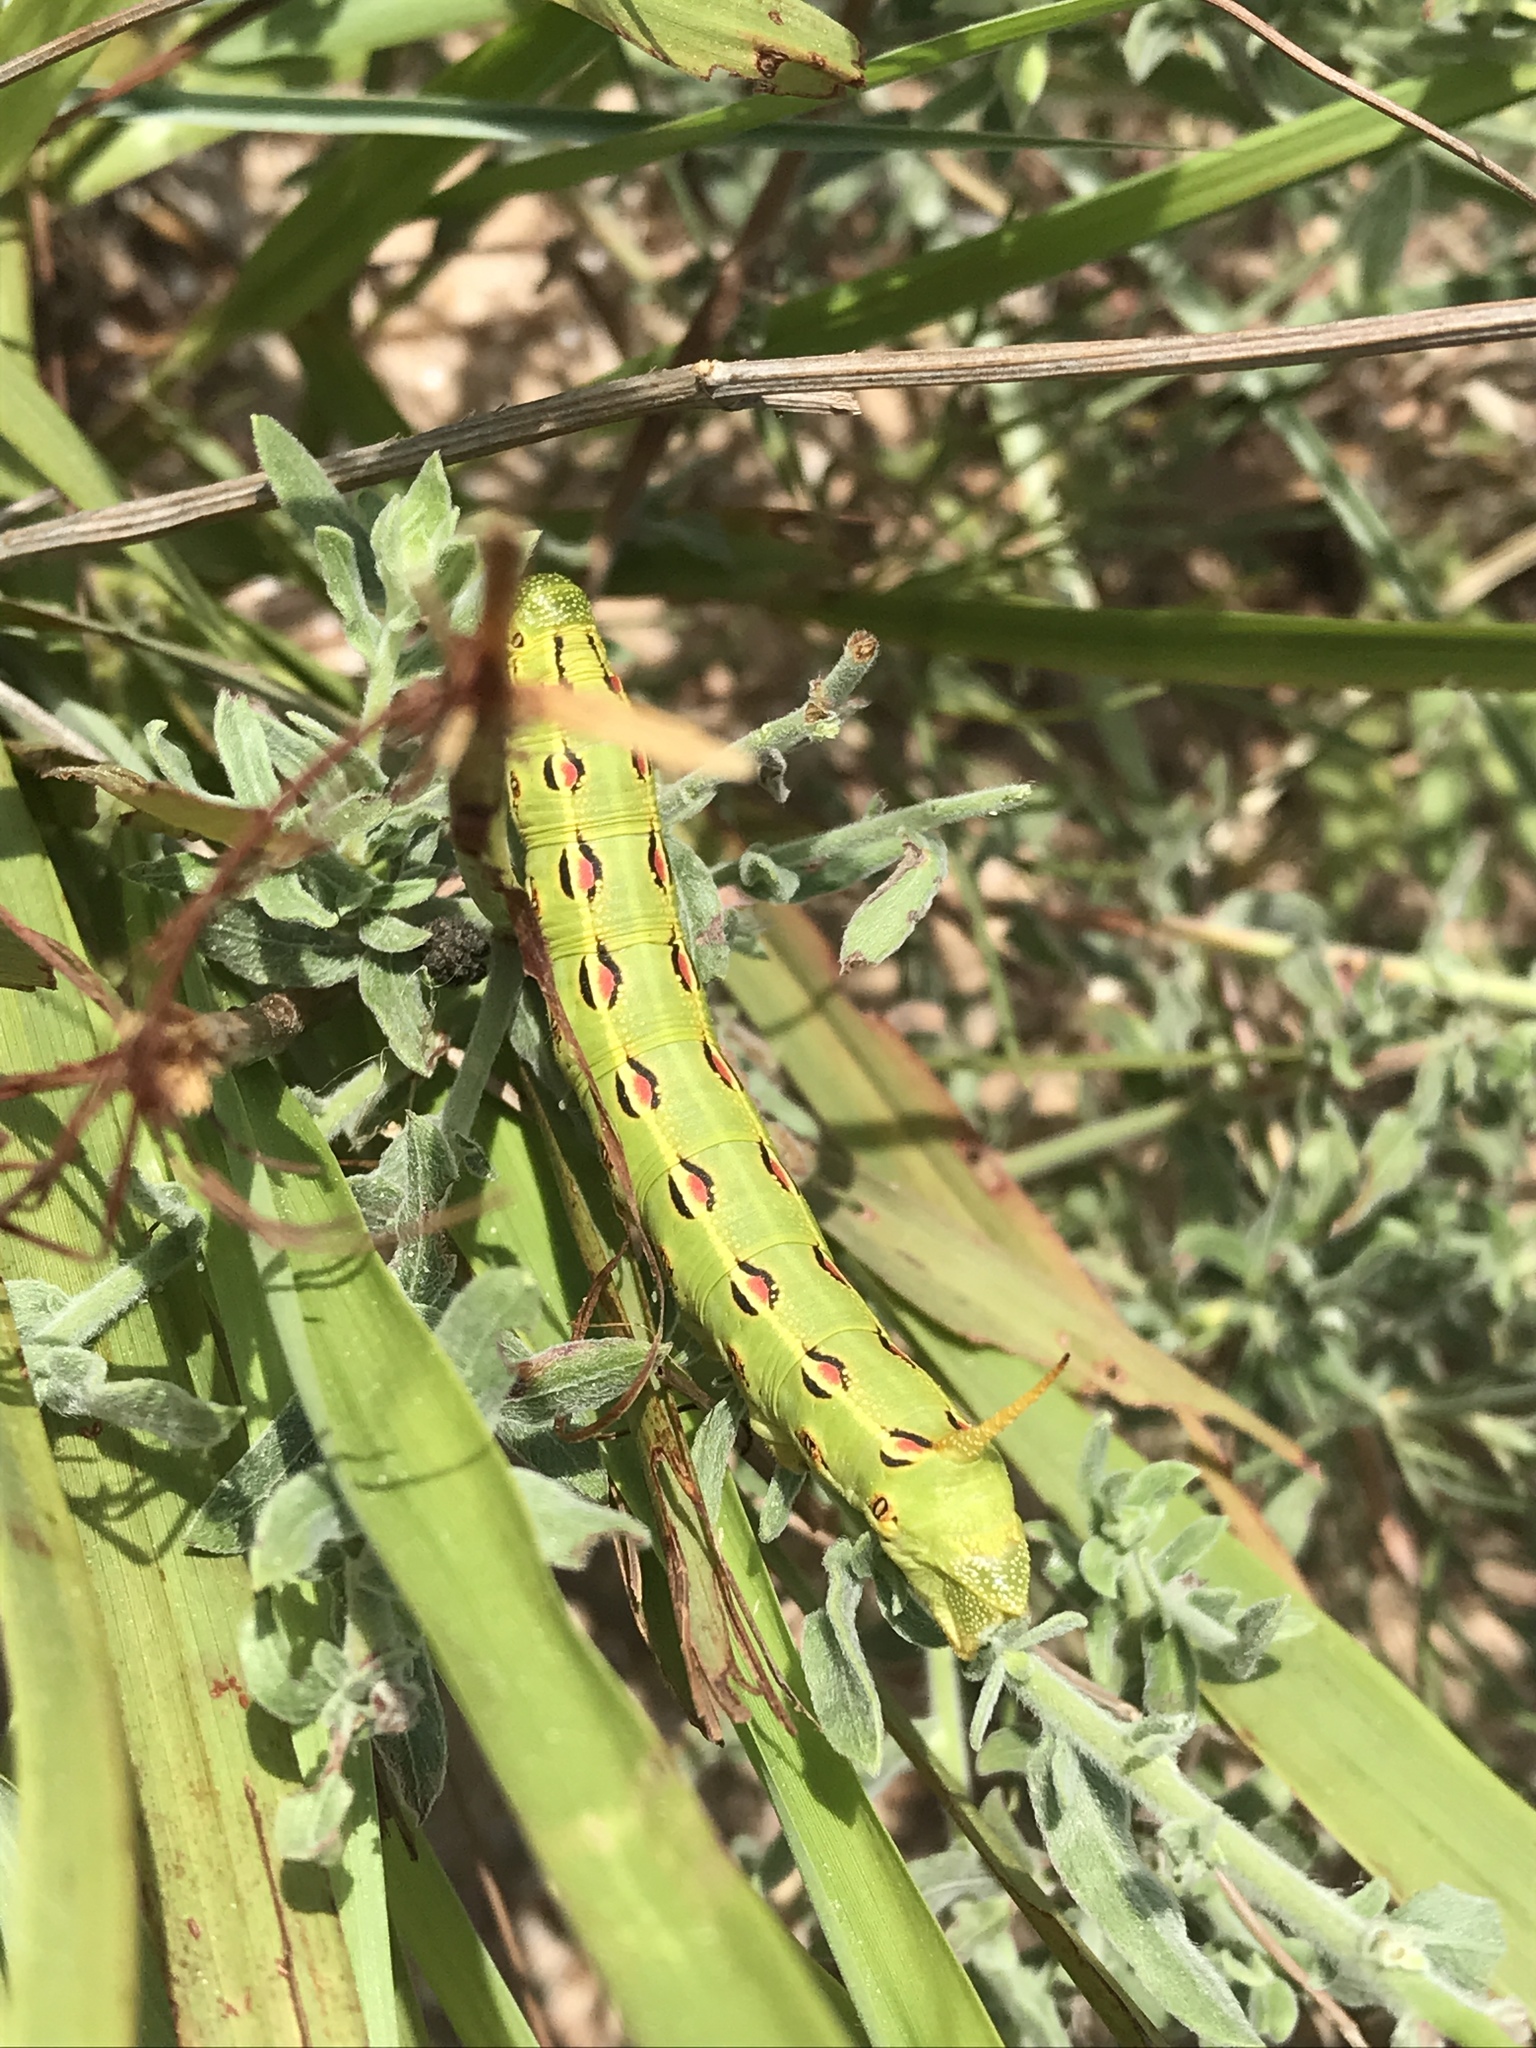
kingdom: Animalia
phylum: Arthropoda
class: Insecta
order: Lepidoptera
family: Sphingidae
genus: Hyles
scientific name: Hyles lineata
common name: White-lined sphinx
